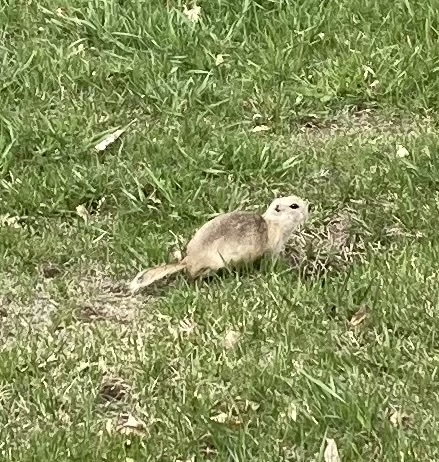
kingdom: Animalia
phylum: Chordata
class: Mammalia
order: Rodentia
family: Sciuridae
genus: Urocitellus
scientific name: Urocitellus richardsonii
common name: Richardson's ground squirrel
